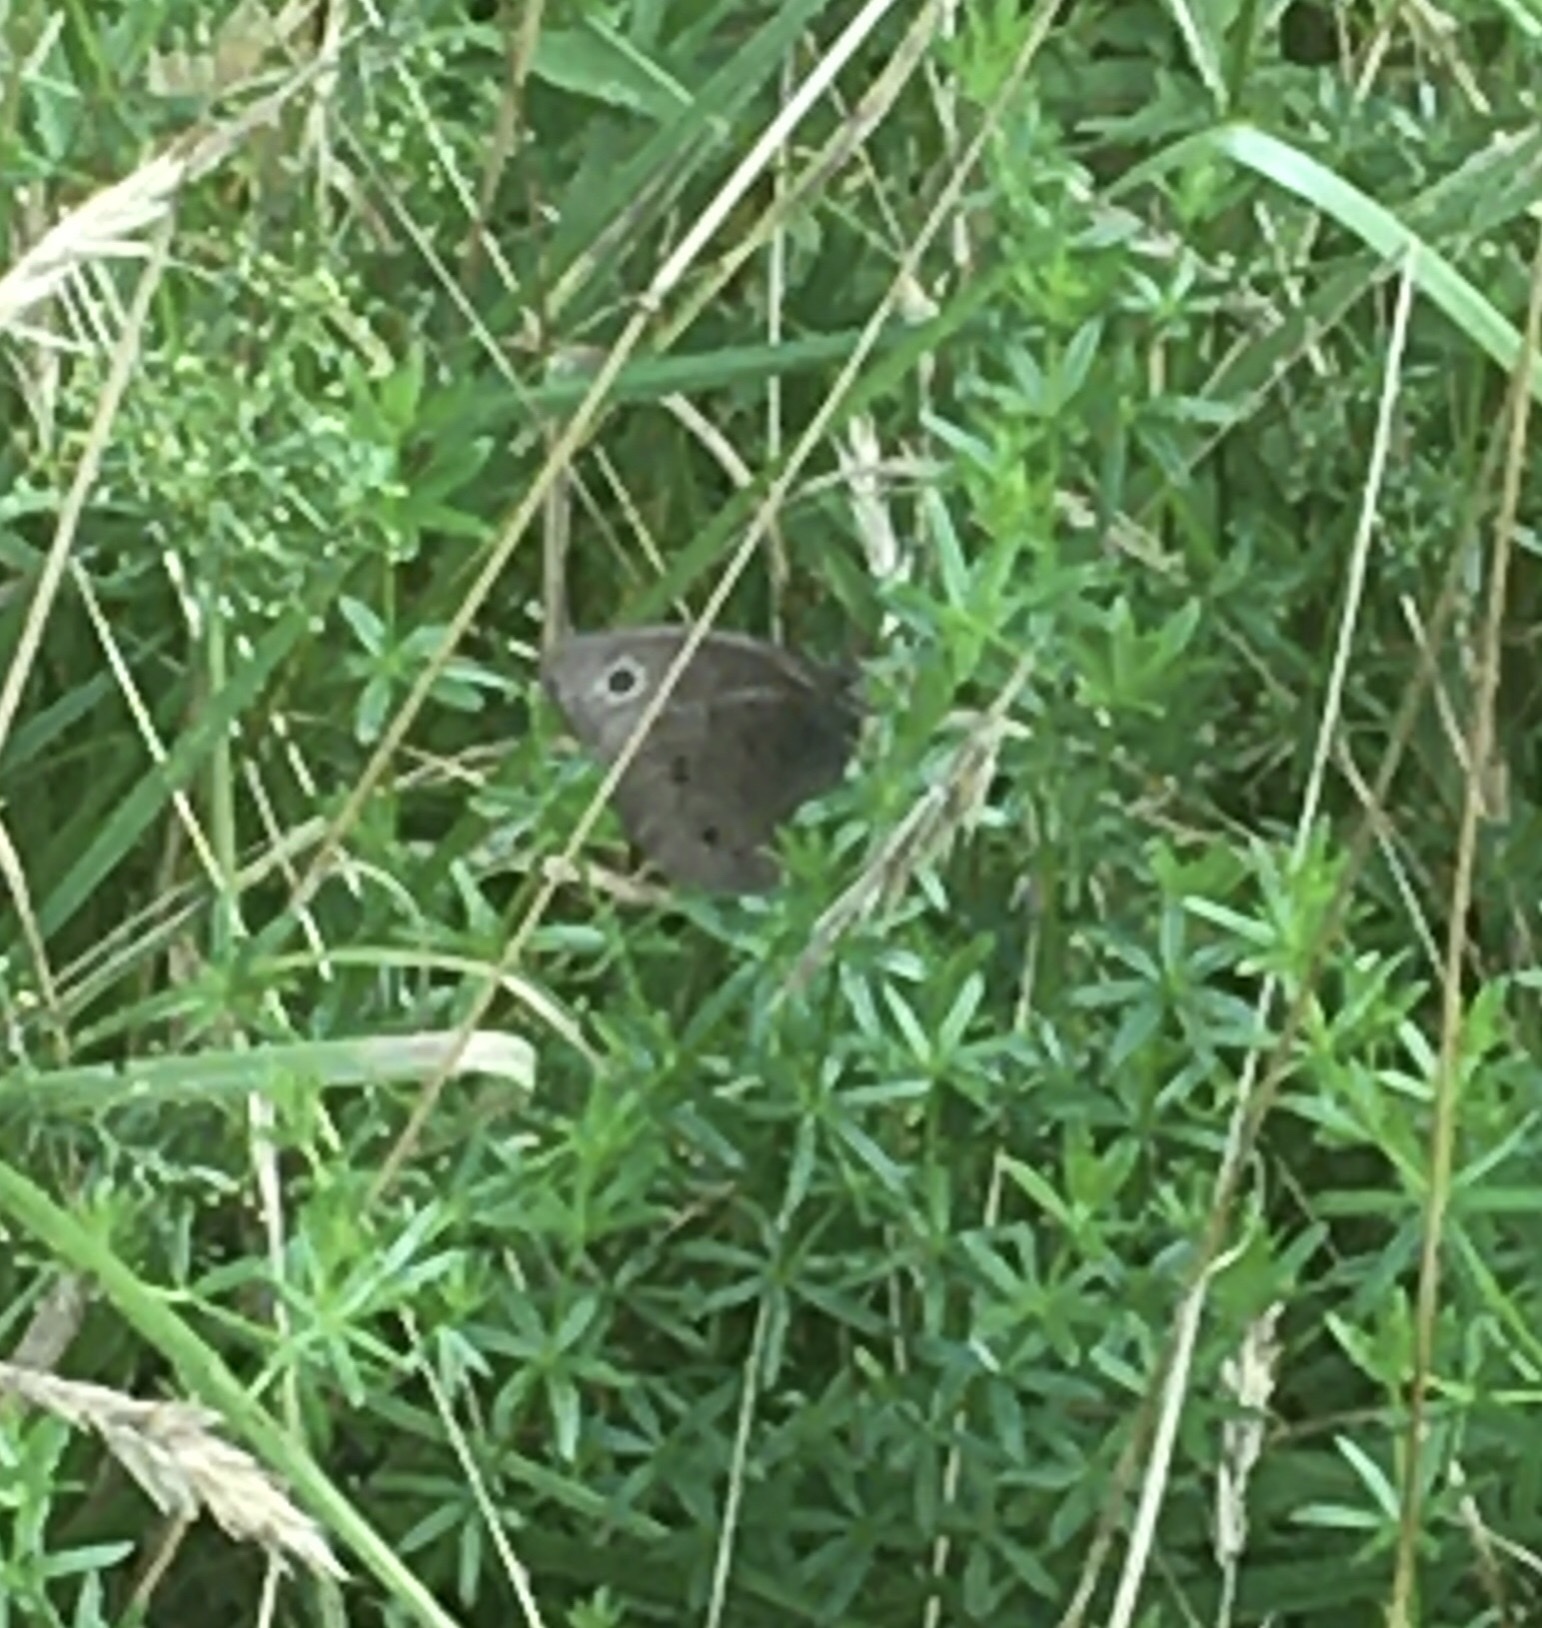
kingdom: Animalia
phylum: Arthropoda
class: Insecta
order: Lepidoptera
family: Nymphalidae
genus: Cercyonis
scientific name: Cercyonis pegala
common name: Common wood-nymph
